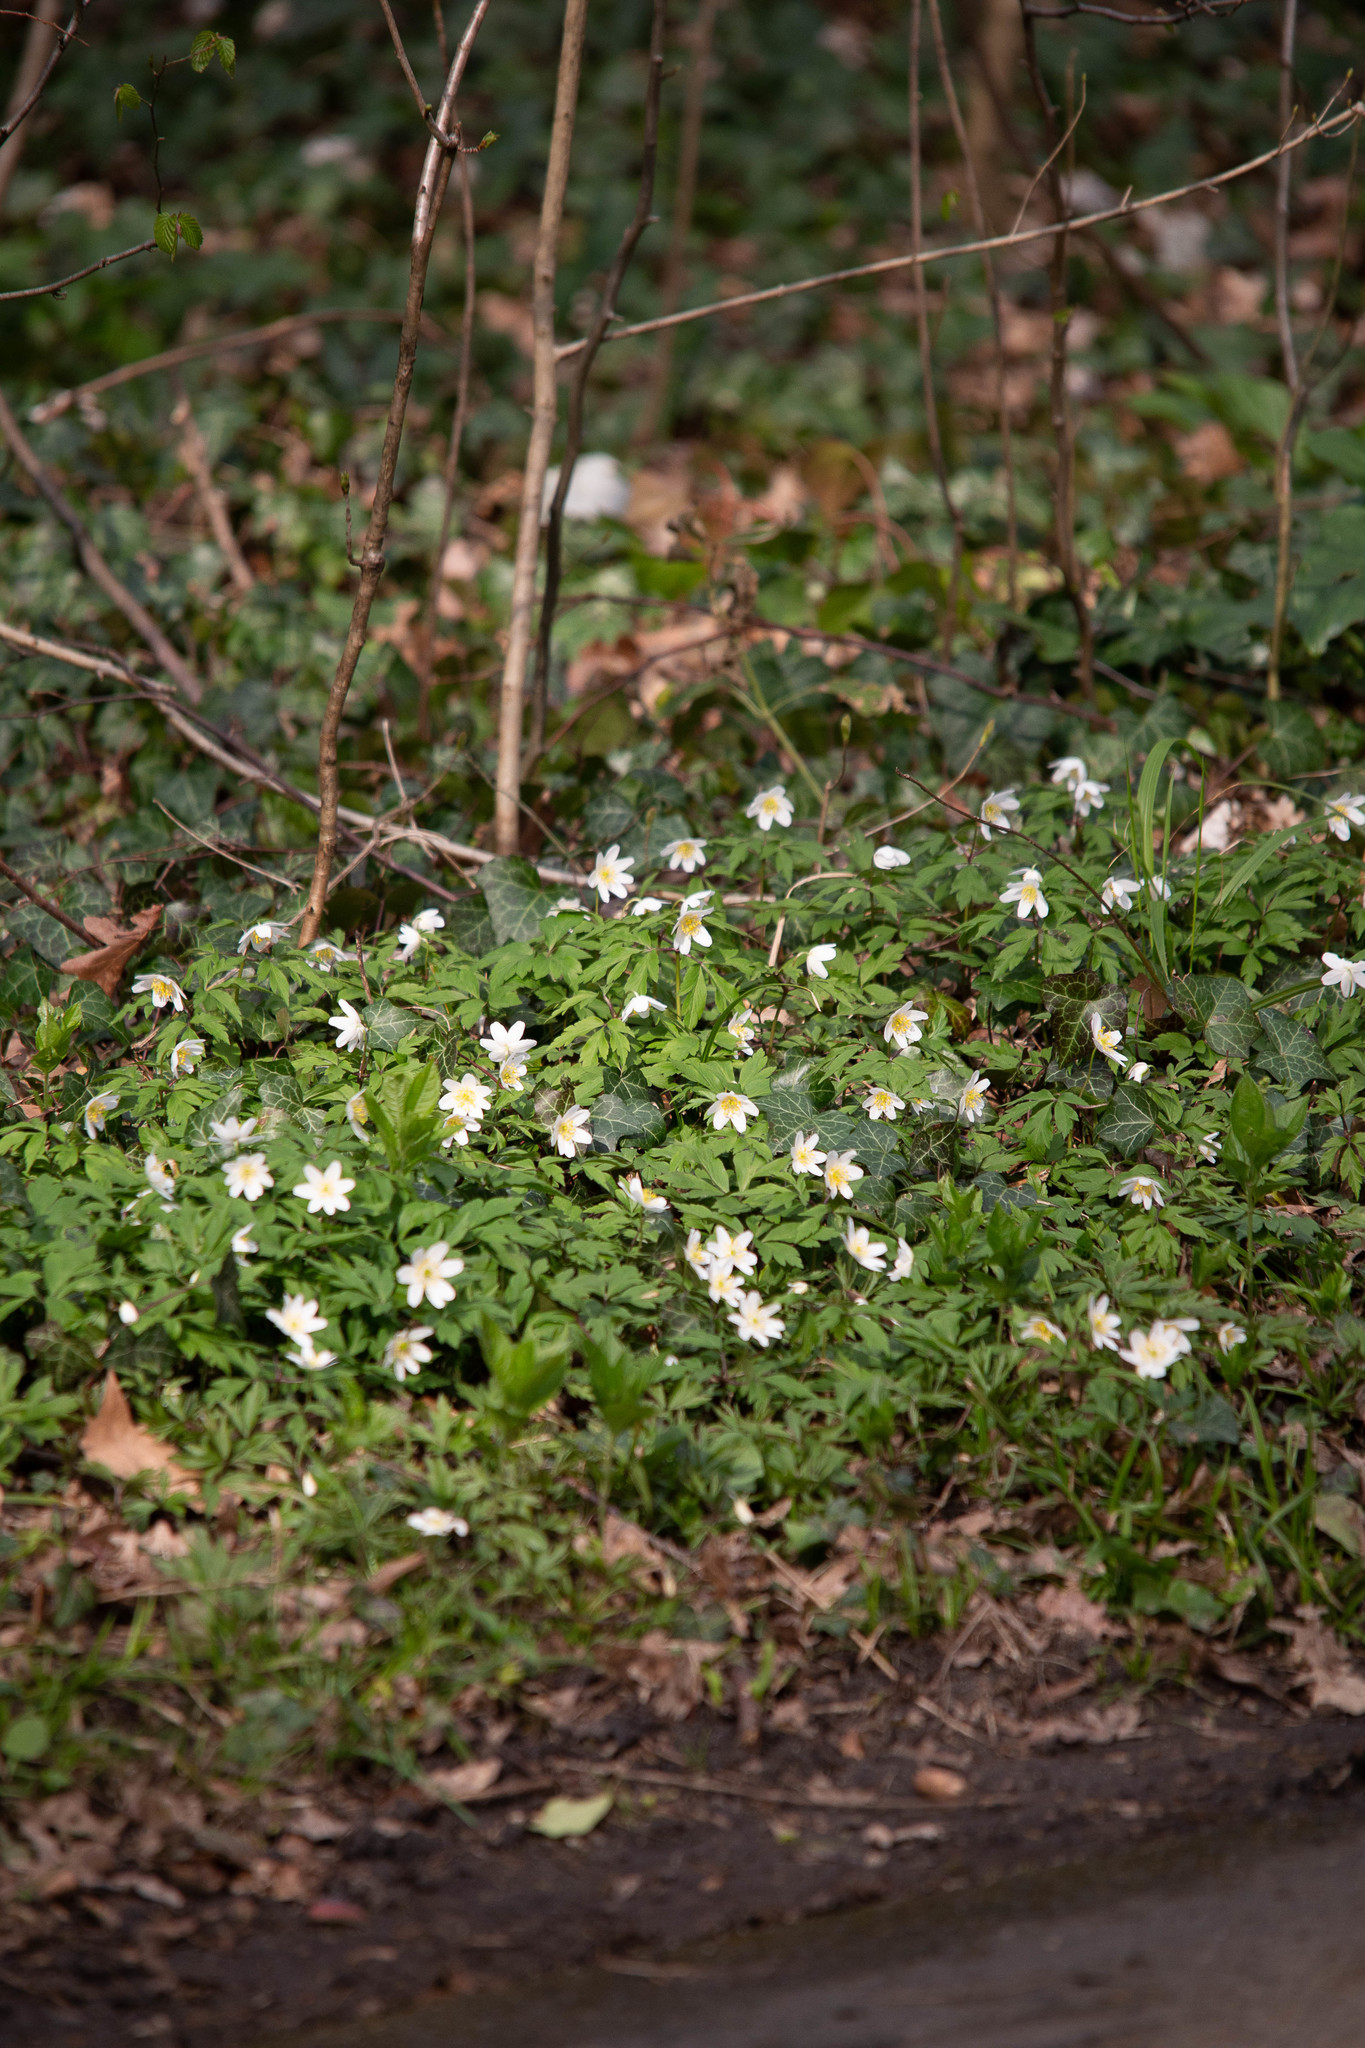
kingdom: Plantae
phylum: Tracheophyta
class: Magnoliopsida
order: Ranunculales
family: Ranunculaceae
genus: Anemone
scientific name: Anemone nemorosa
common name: Wood anemone
